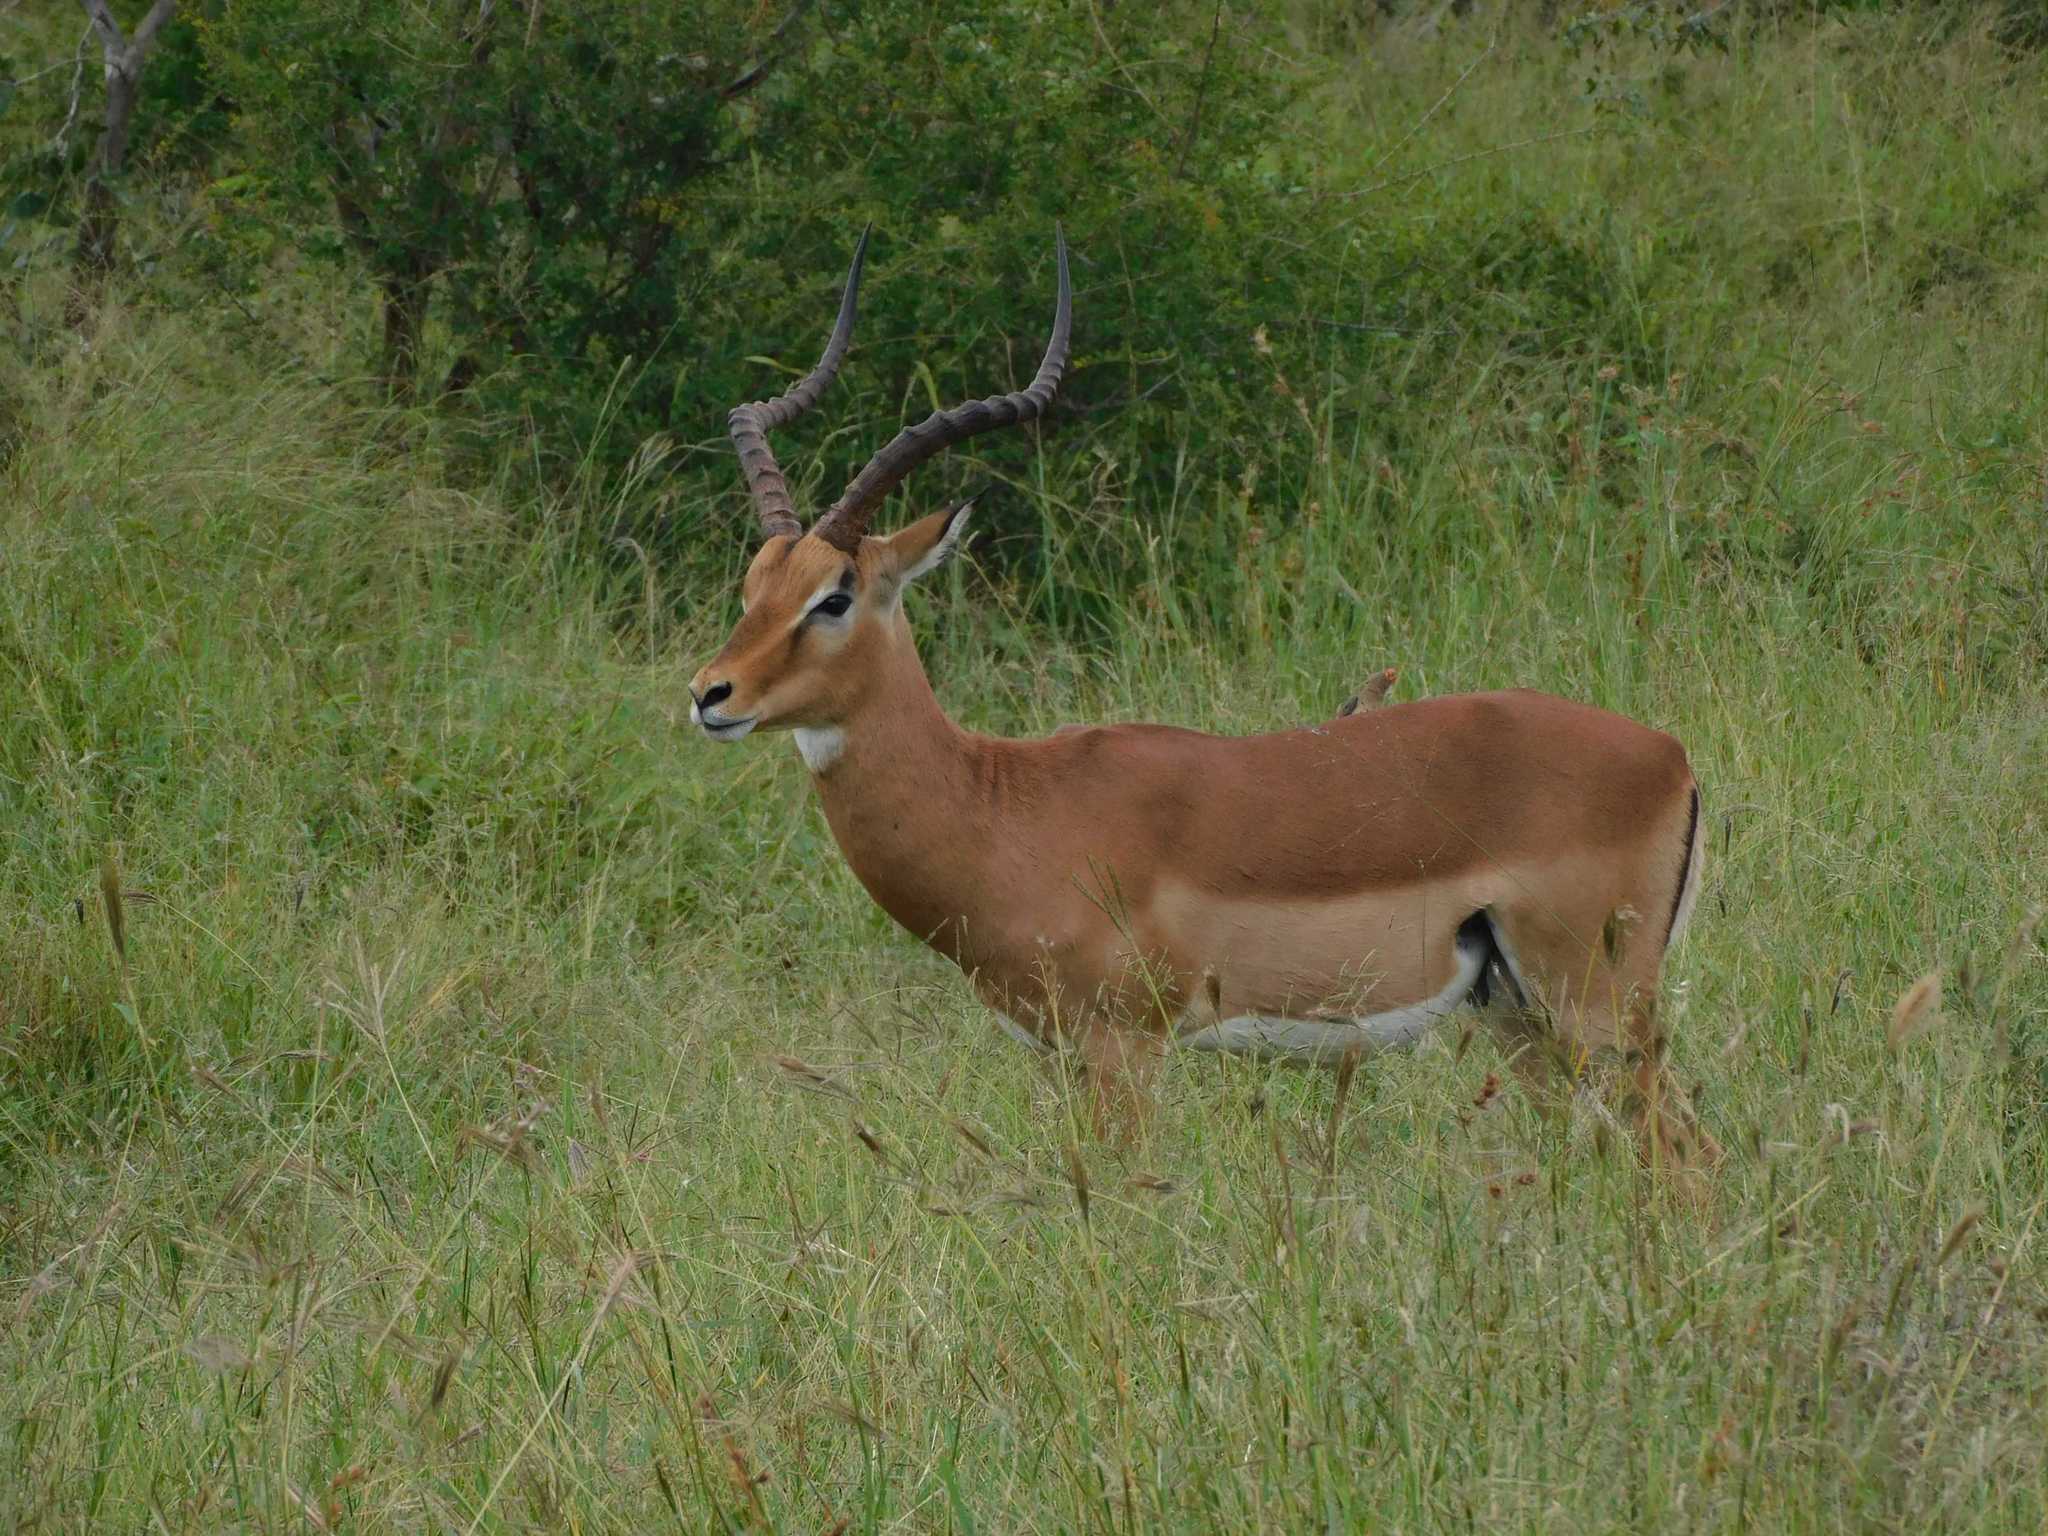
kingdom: Animalia
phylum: Chordata
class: Mammalia
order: Artiodactyla
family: Bovidae
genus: Aepyceros
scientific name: Aepyceros melampus
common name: Impala
